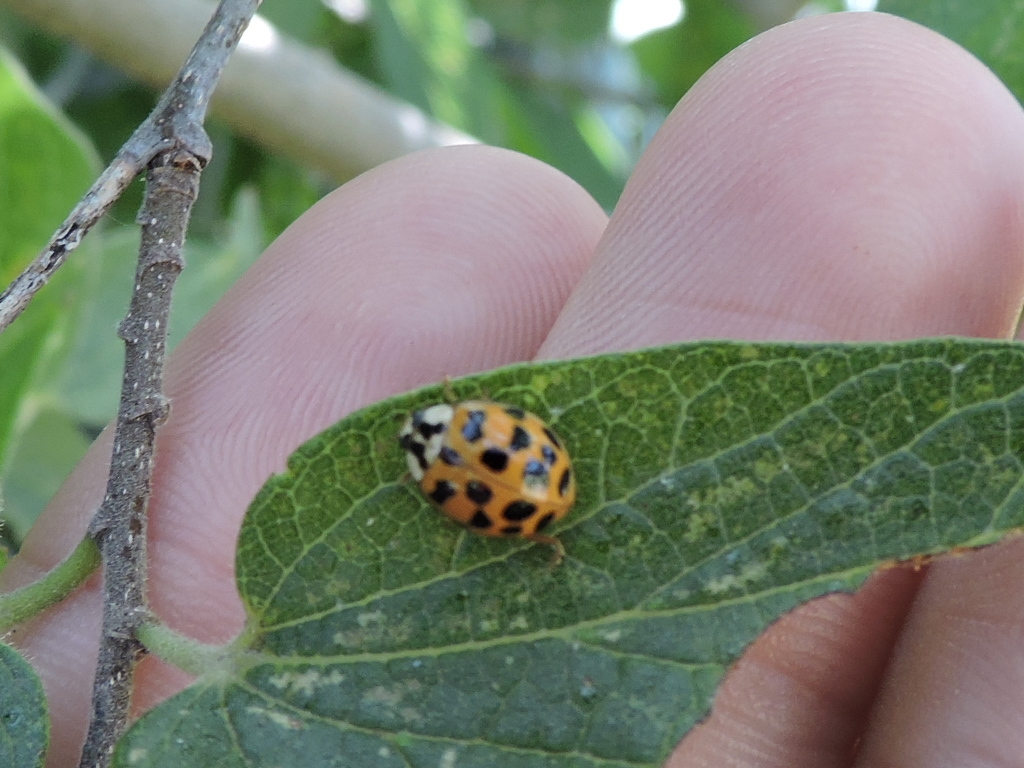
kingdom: Animalia
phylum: Arthropoda
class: Insecta
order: Coleoptera
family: Coccinellidae
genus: Harmonia
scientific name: Harmonia axyridis
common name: Harlequin ladybird
